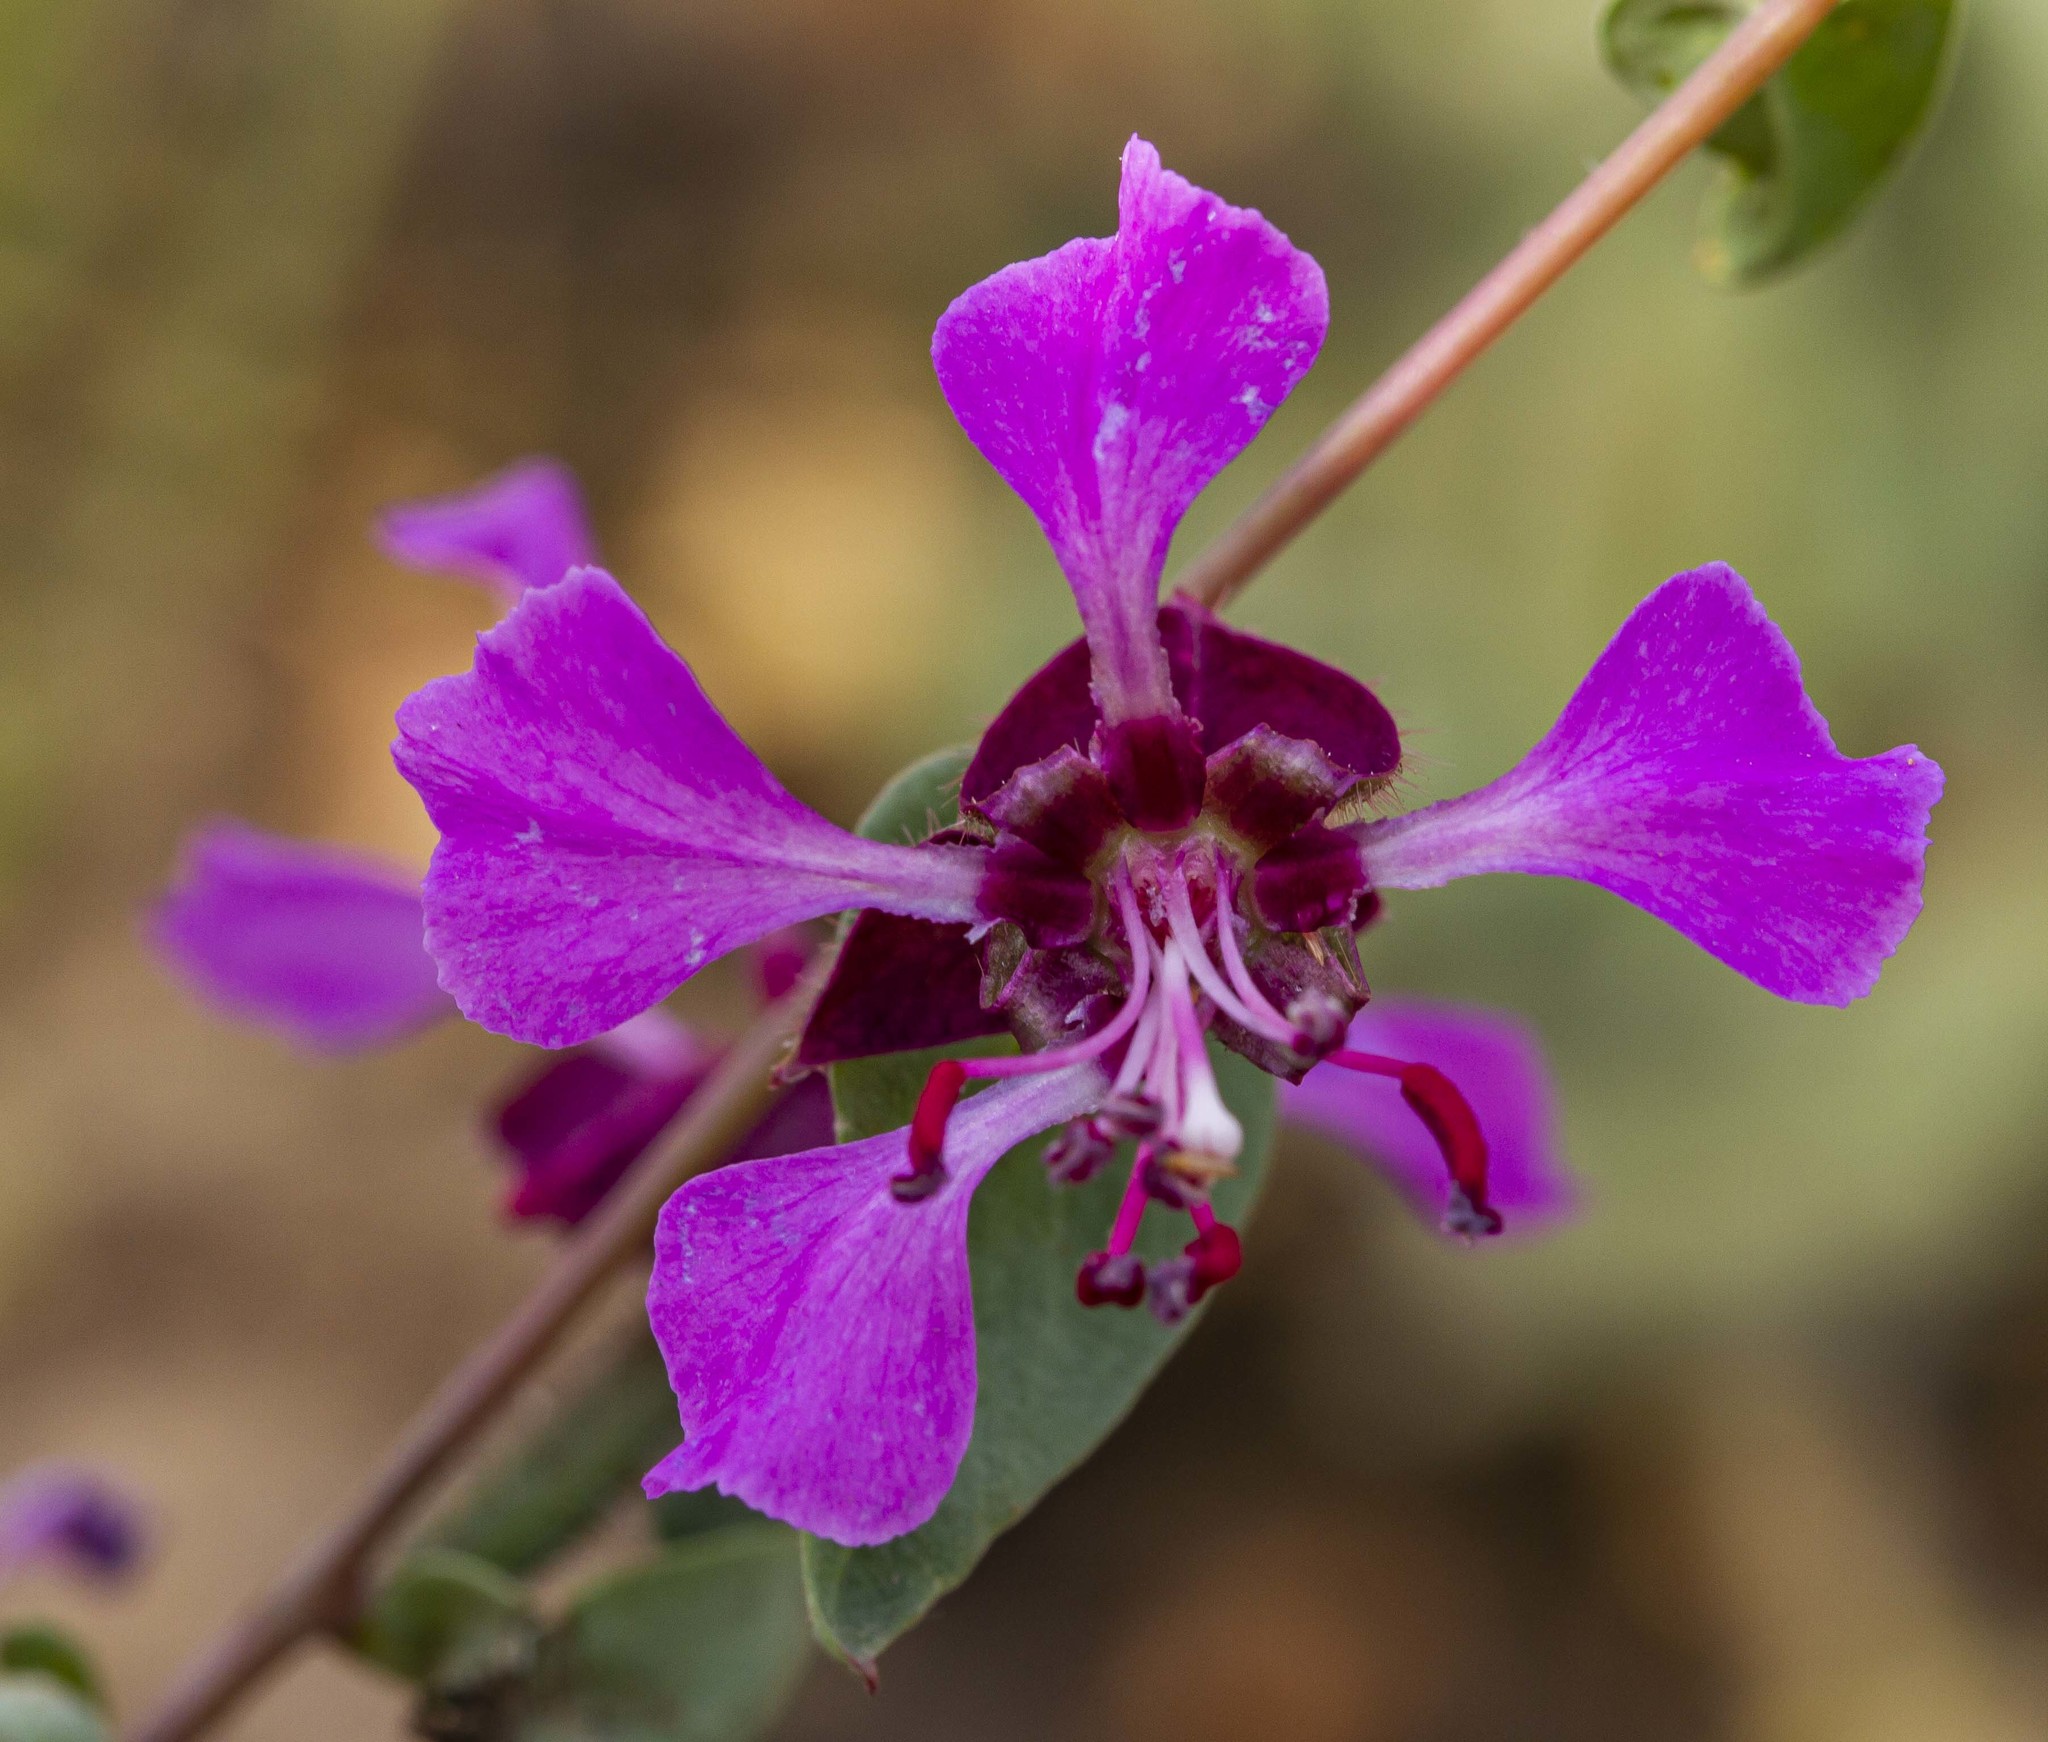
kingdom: Plantae
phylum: Tracheophyta
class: Magnoliopsida
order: Myrtales
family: Onagraceae
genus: Clarkia
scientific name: Clarkia unguiculata
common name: Clarkia
